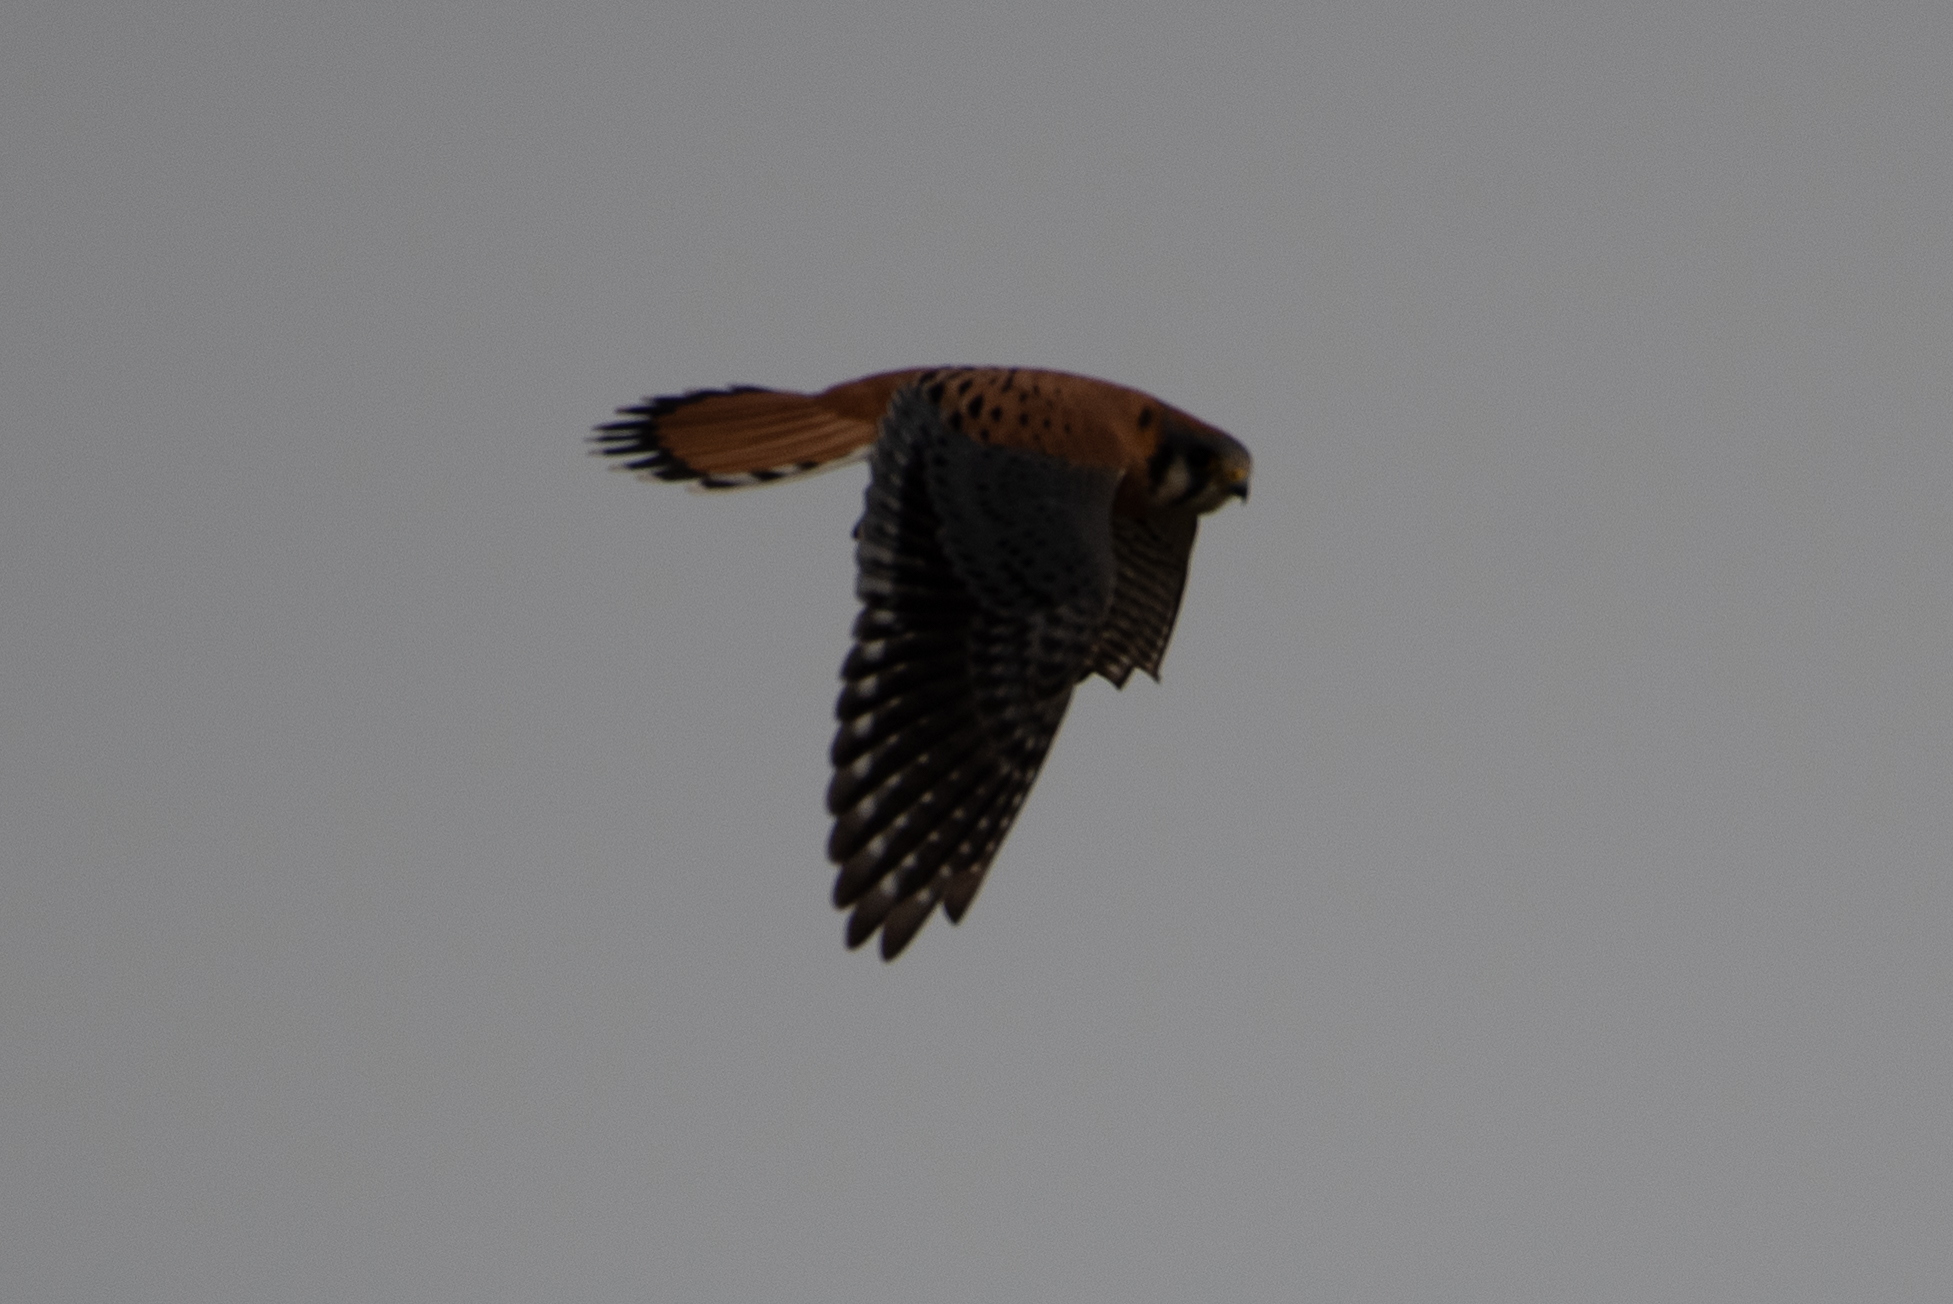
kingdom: Animalia
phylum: Chordata
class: Aves
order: Falconiformes
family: Falconidae
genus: Falco
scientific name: Falco sparverius
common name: American kestrel
